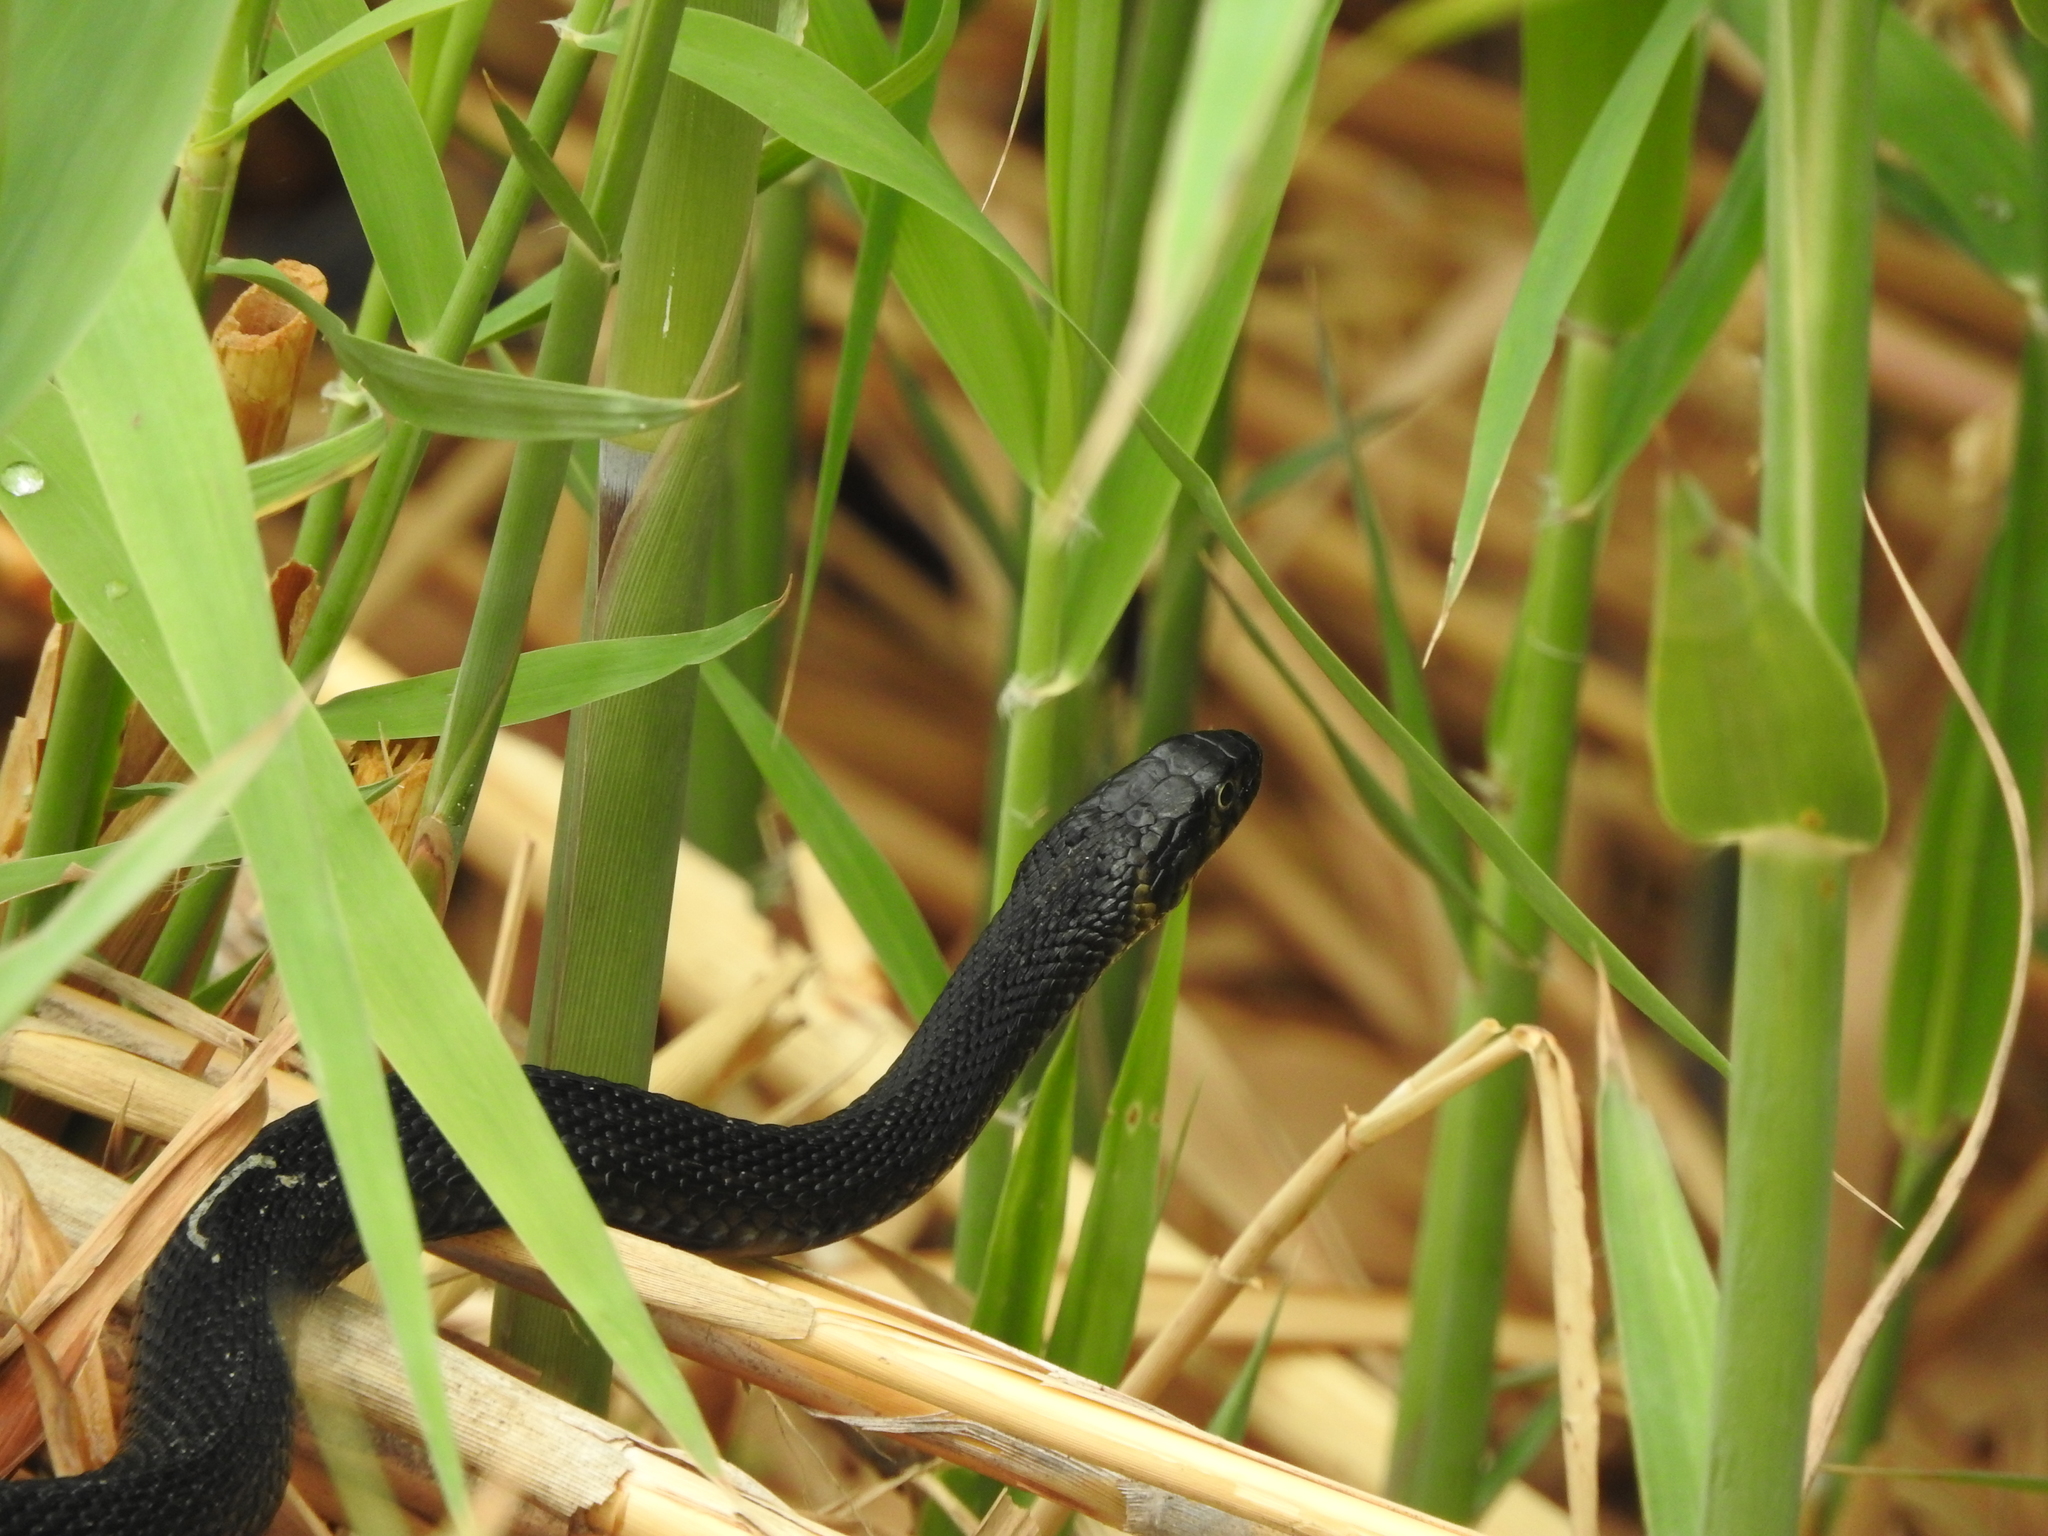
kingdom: Animalia
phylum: Chordata
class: Squamata
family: Colubridae
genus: Thamnophis
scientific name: Thamnophis melanogaster
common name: Blackbelly garter snake
